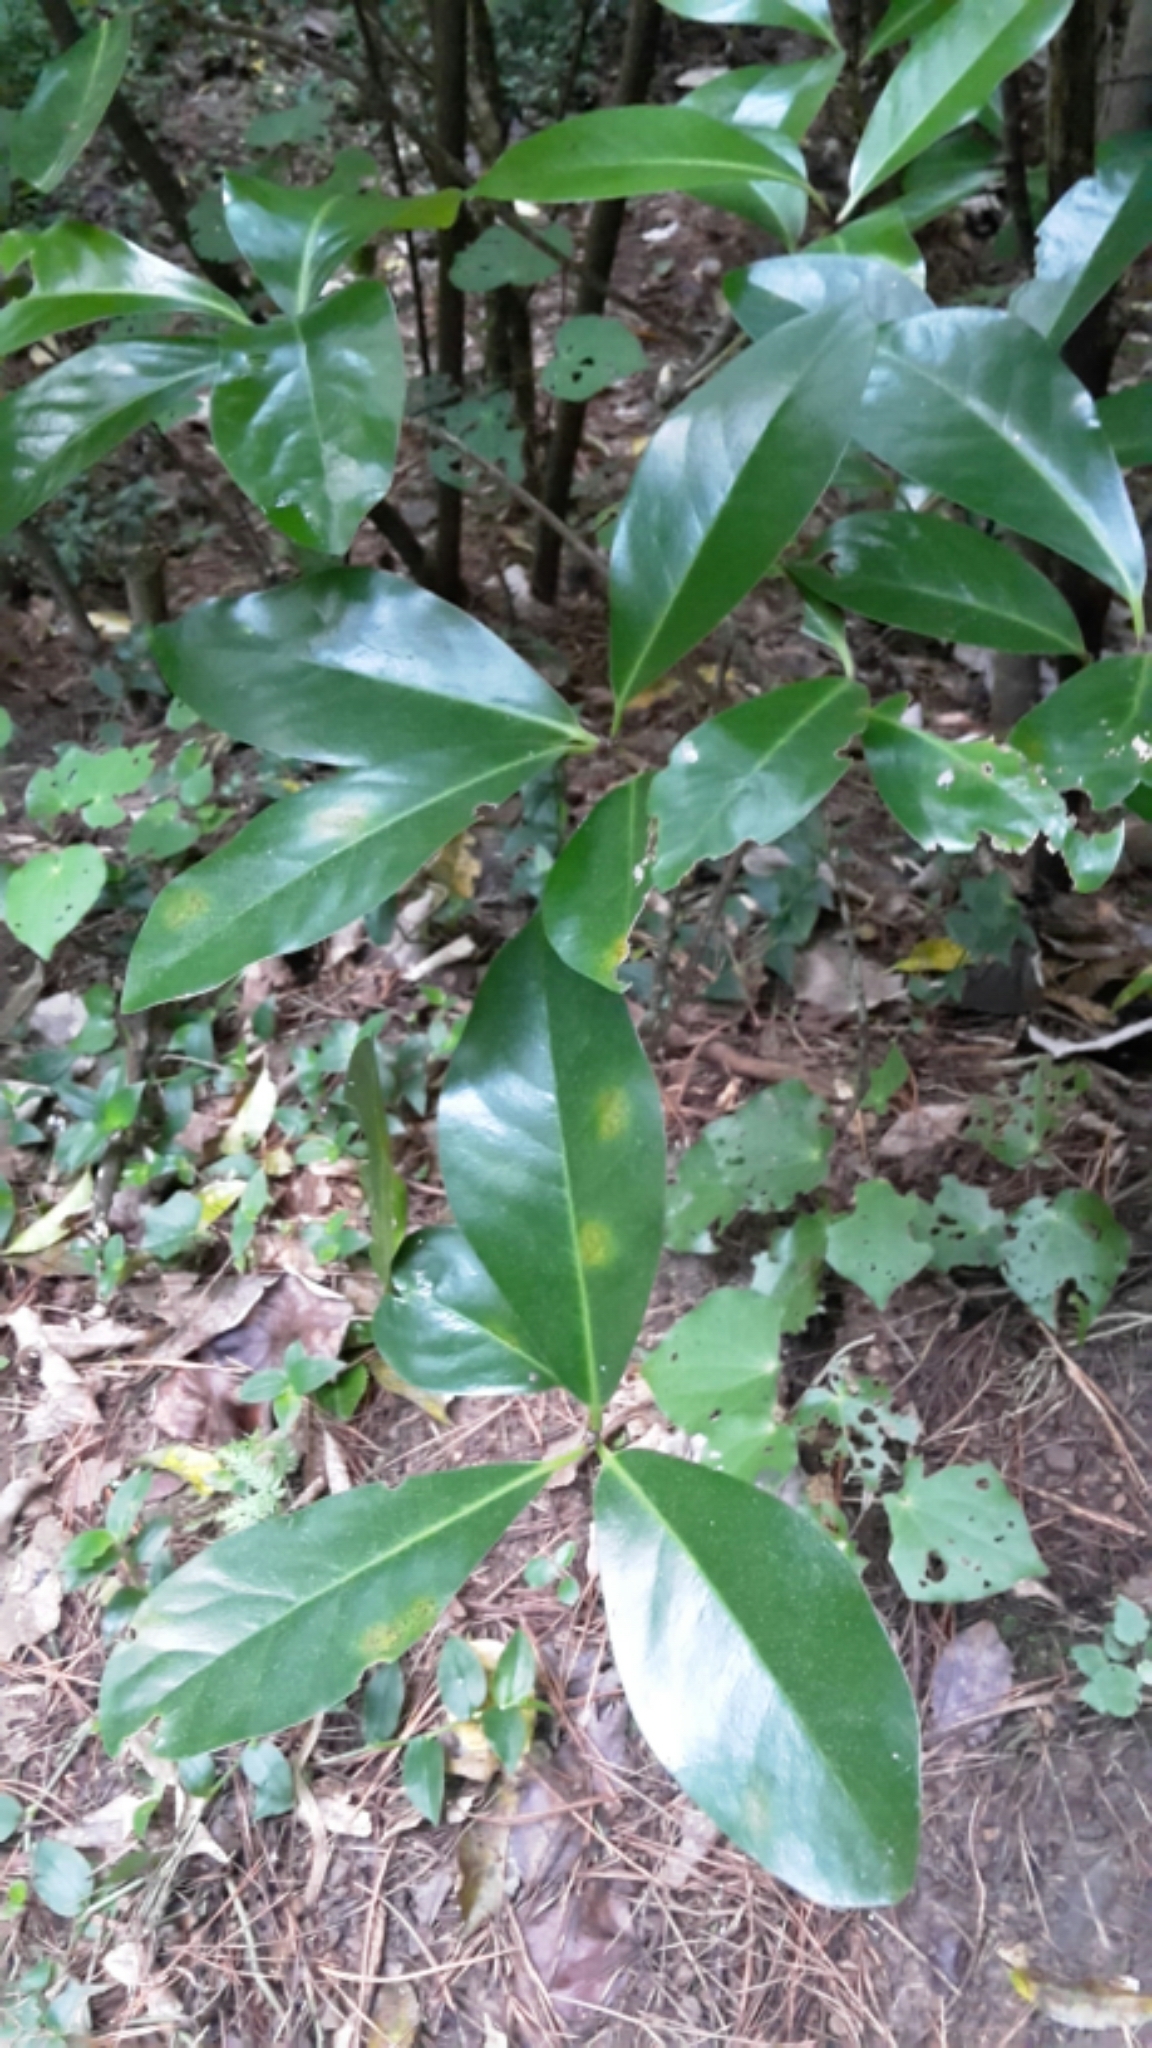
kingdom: Plantae
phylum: Tracheophyta
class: Magnoliopsida
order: Cucurbitales
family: Corynocarpaceae
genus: Corynocarpus
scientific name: Corynocarpus laevigatus
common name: New zealand laurel
